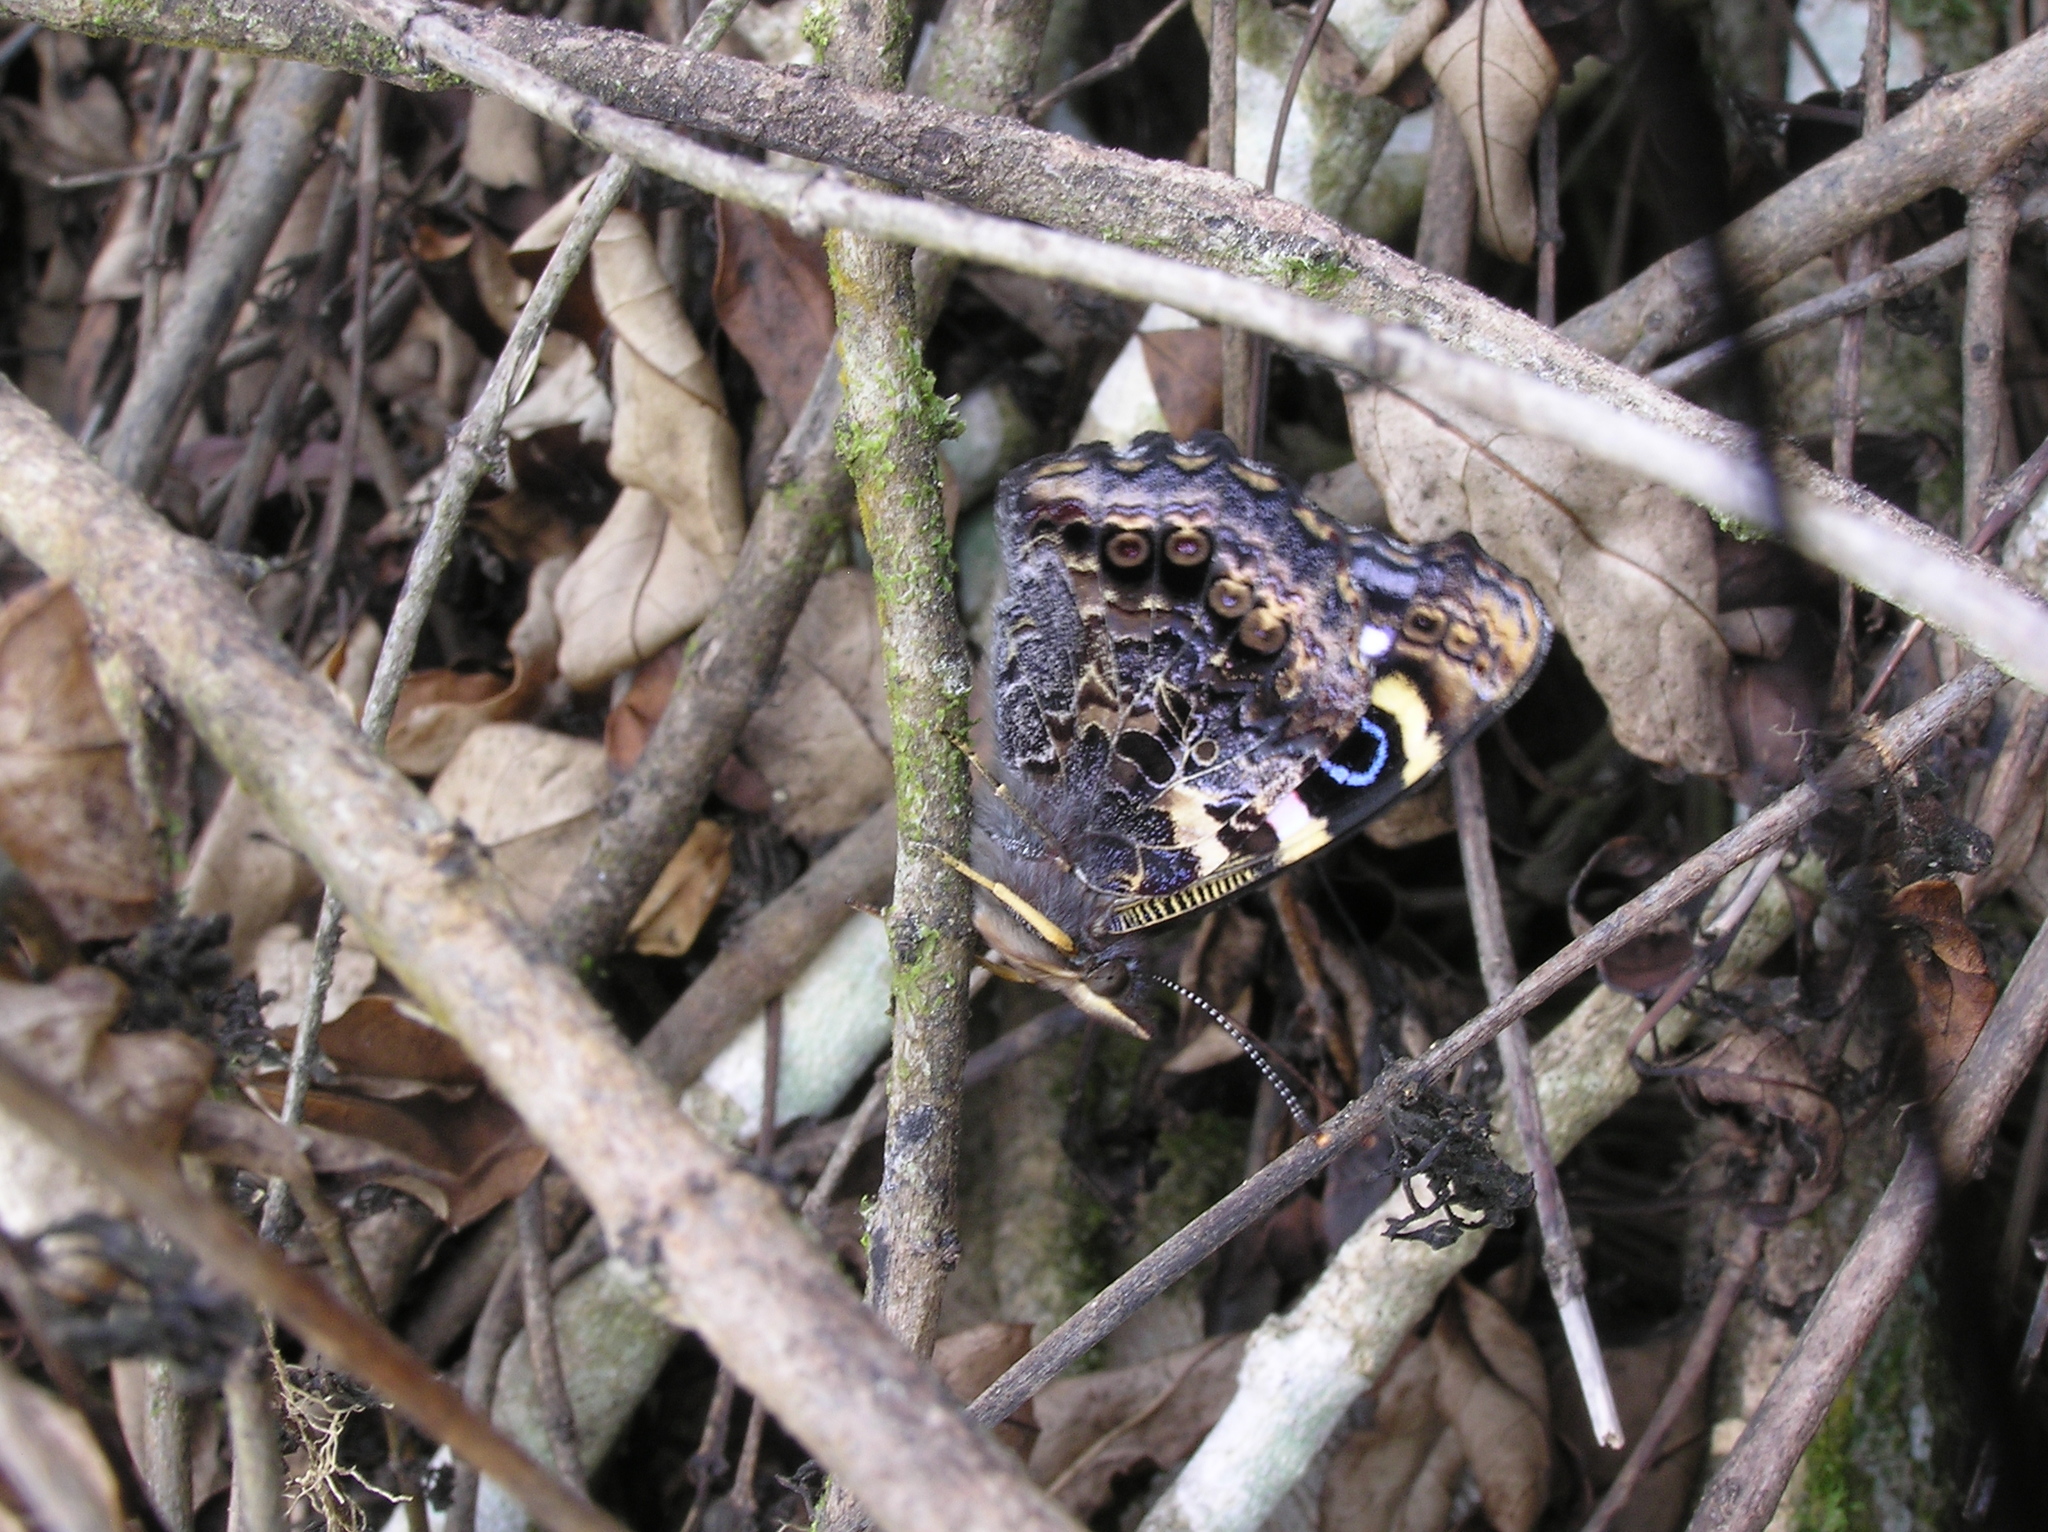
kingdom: Animalia
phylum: Arthropoda
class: Insecta
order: Lepidoptera
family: Nymphalidae
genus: Vanessa
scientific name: Vanessa gonerilla
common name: New zealand red admiral
